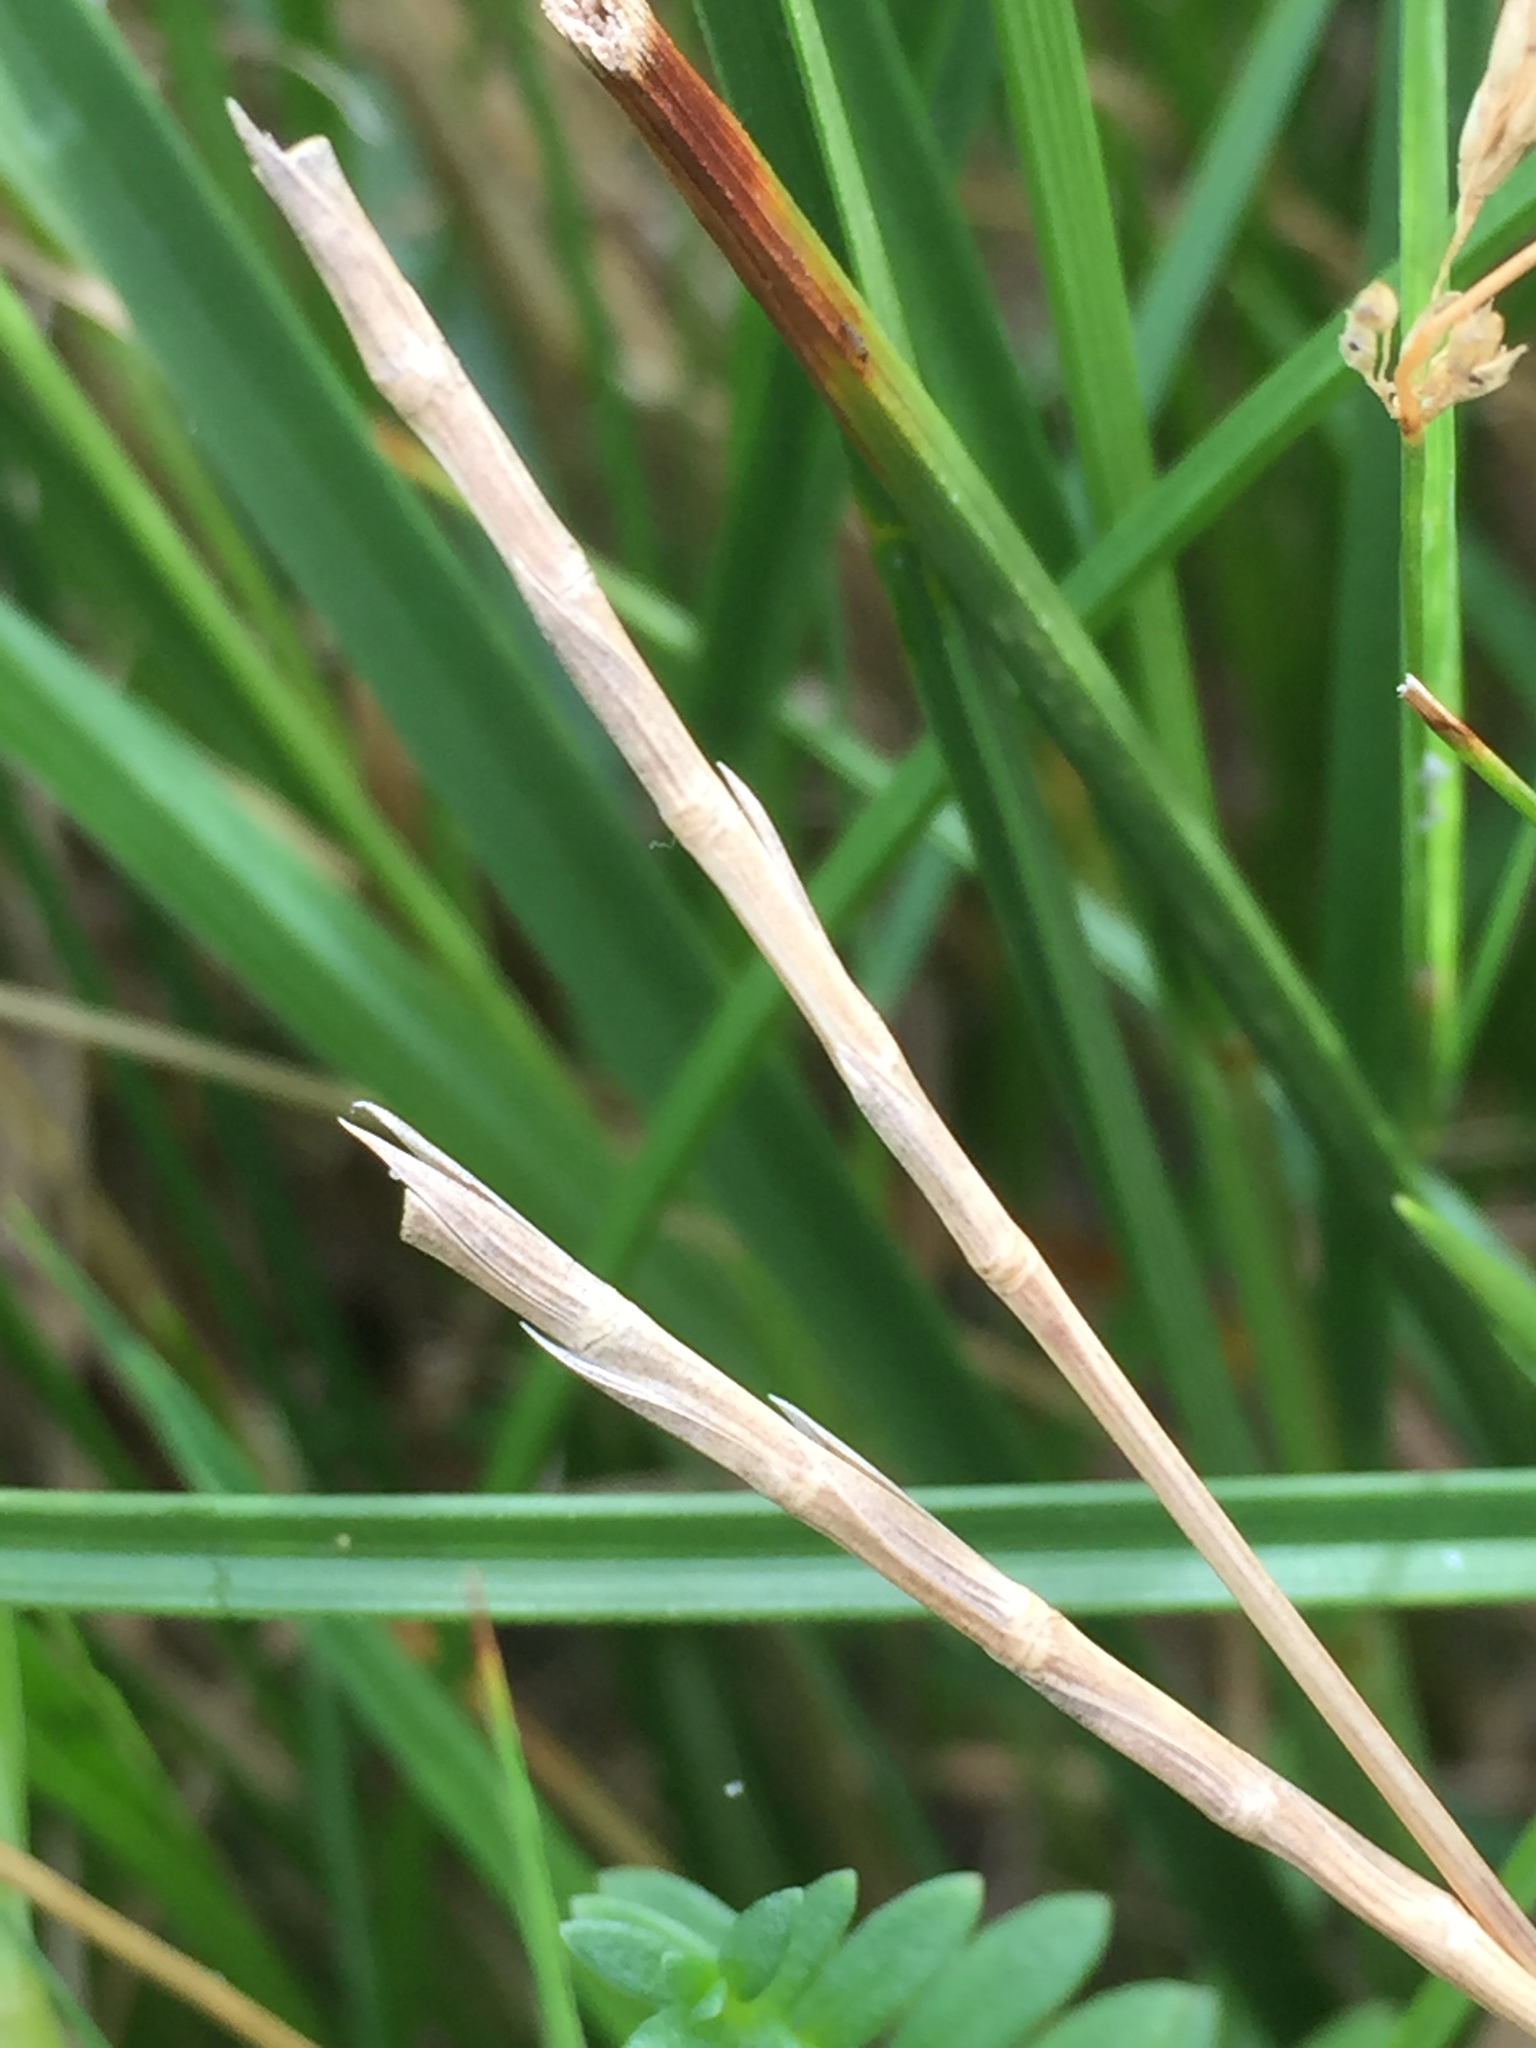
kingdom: Plantae
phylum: Tracheophyta
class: Liliopsida
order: Poales
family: Poaceae
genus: Parapholis
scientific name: Parapholis strigosa
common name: Hard-grass
